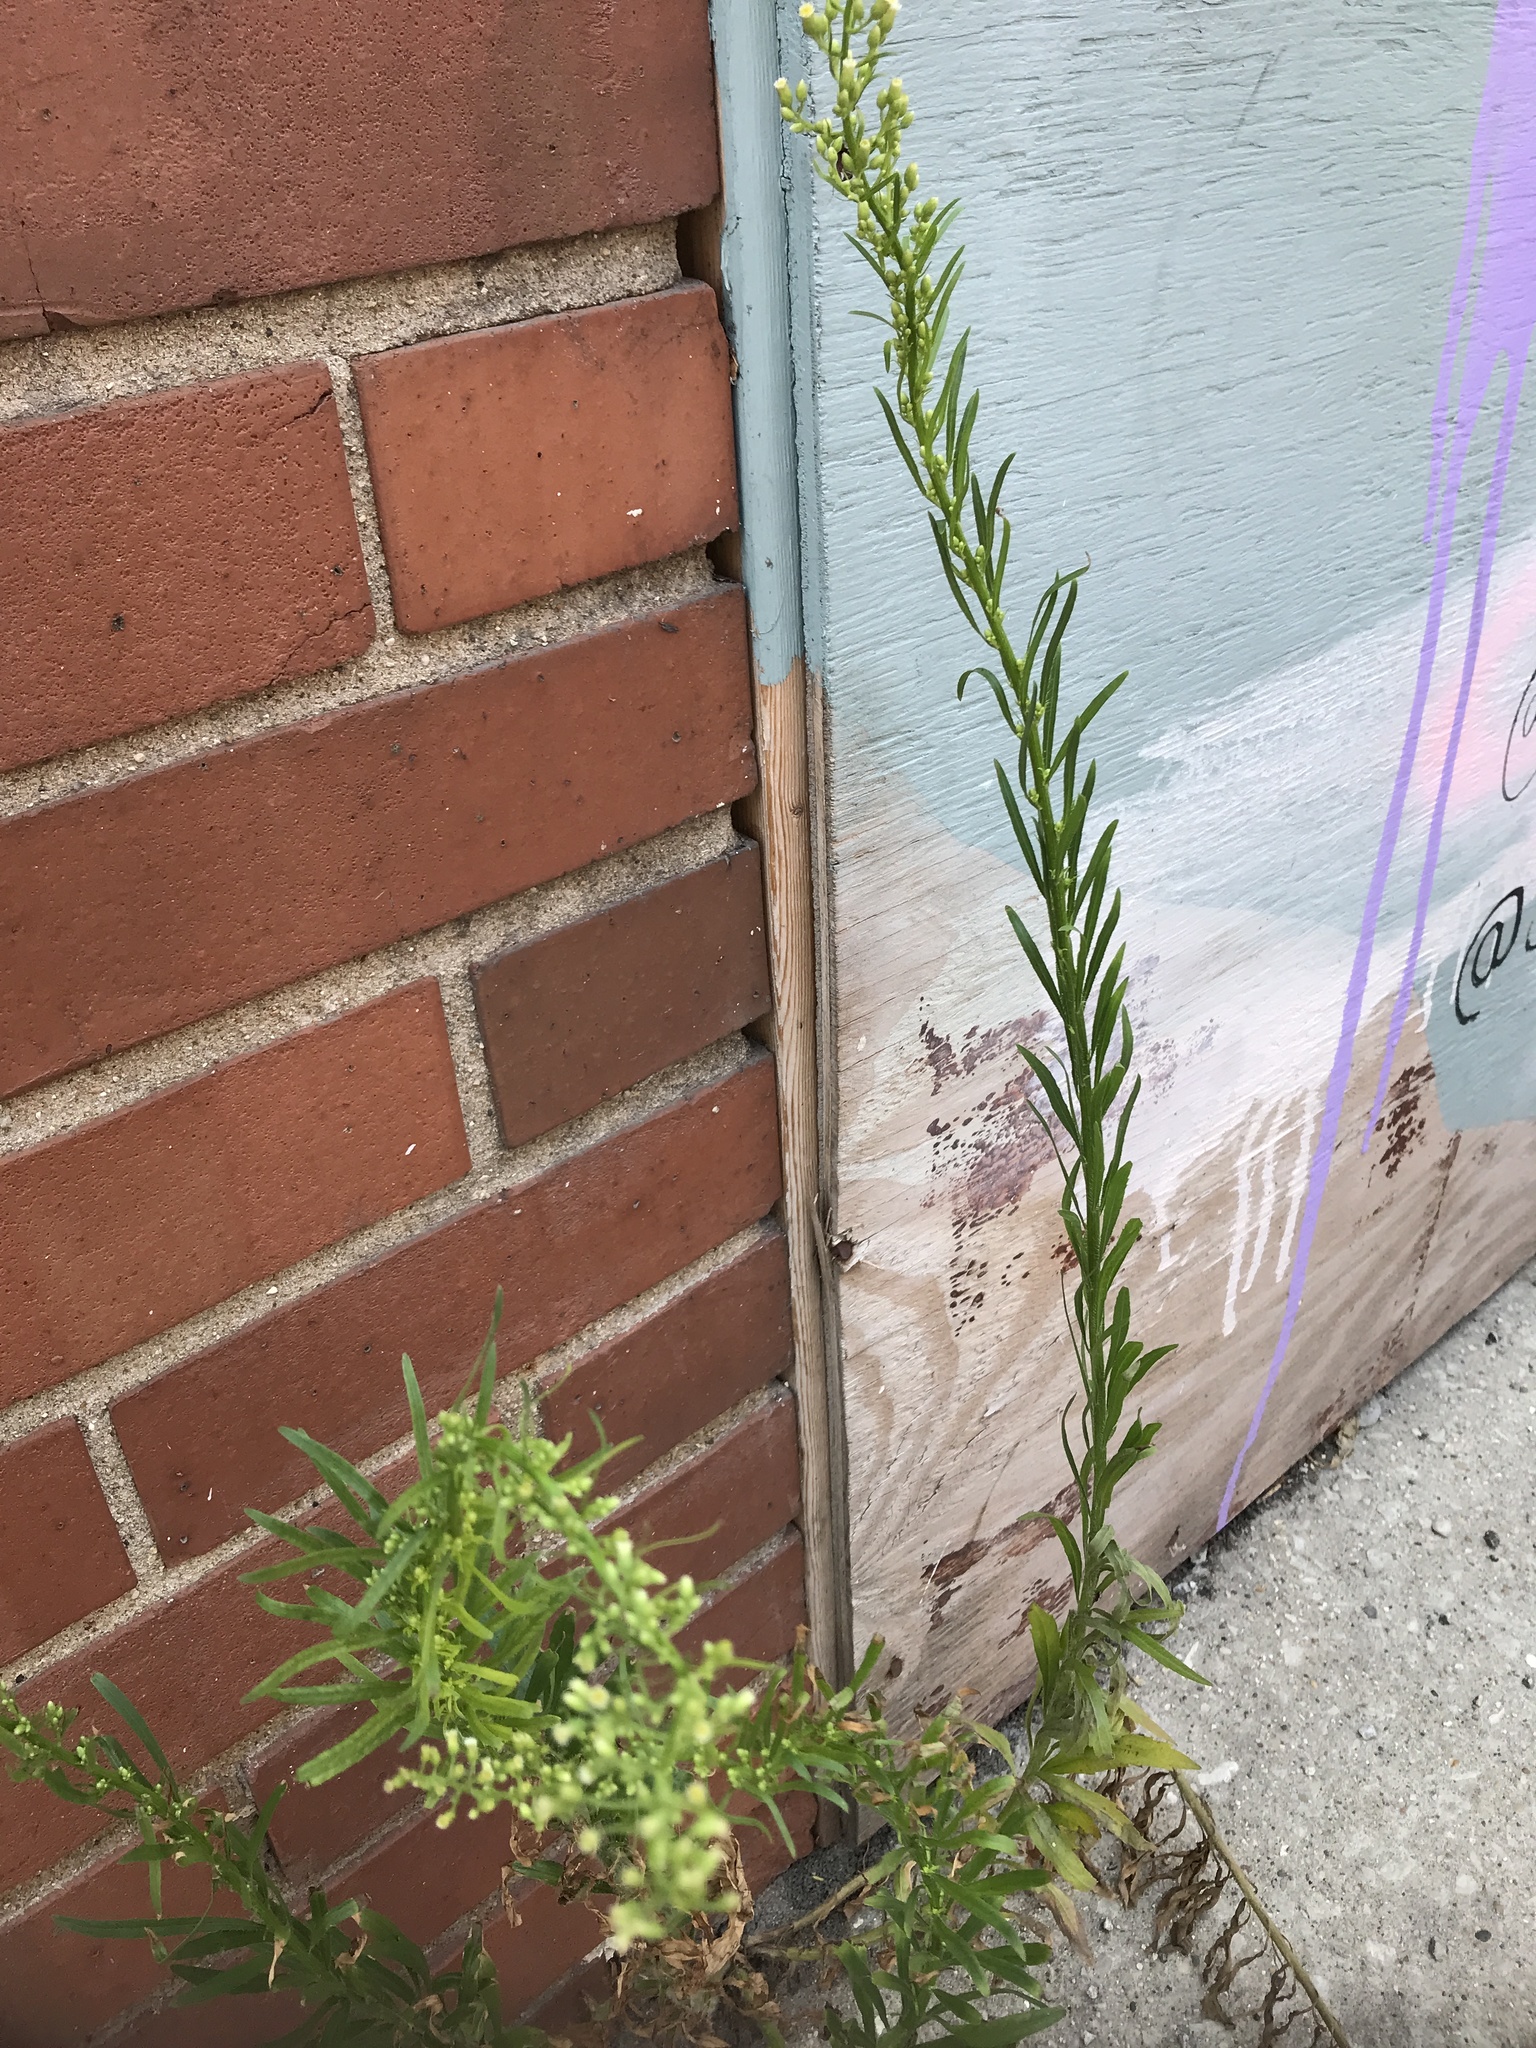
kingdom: Plantae
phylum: Tracheophyta
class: Magnoliopsida
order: Asterales
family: Asteraceae
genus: Erigeron
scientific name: Erigeron canadensis
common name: Canadian fleabane
